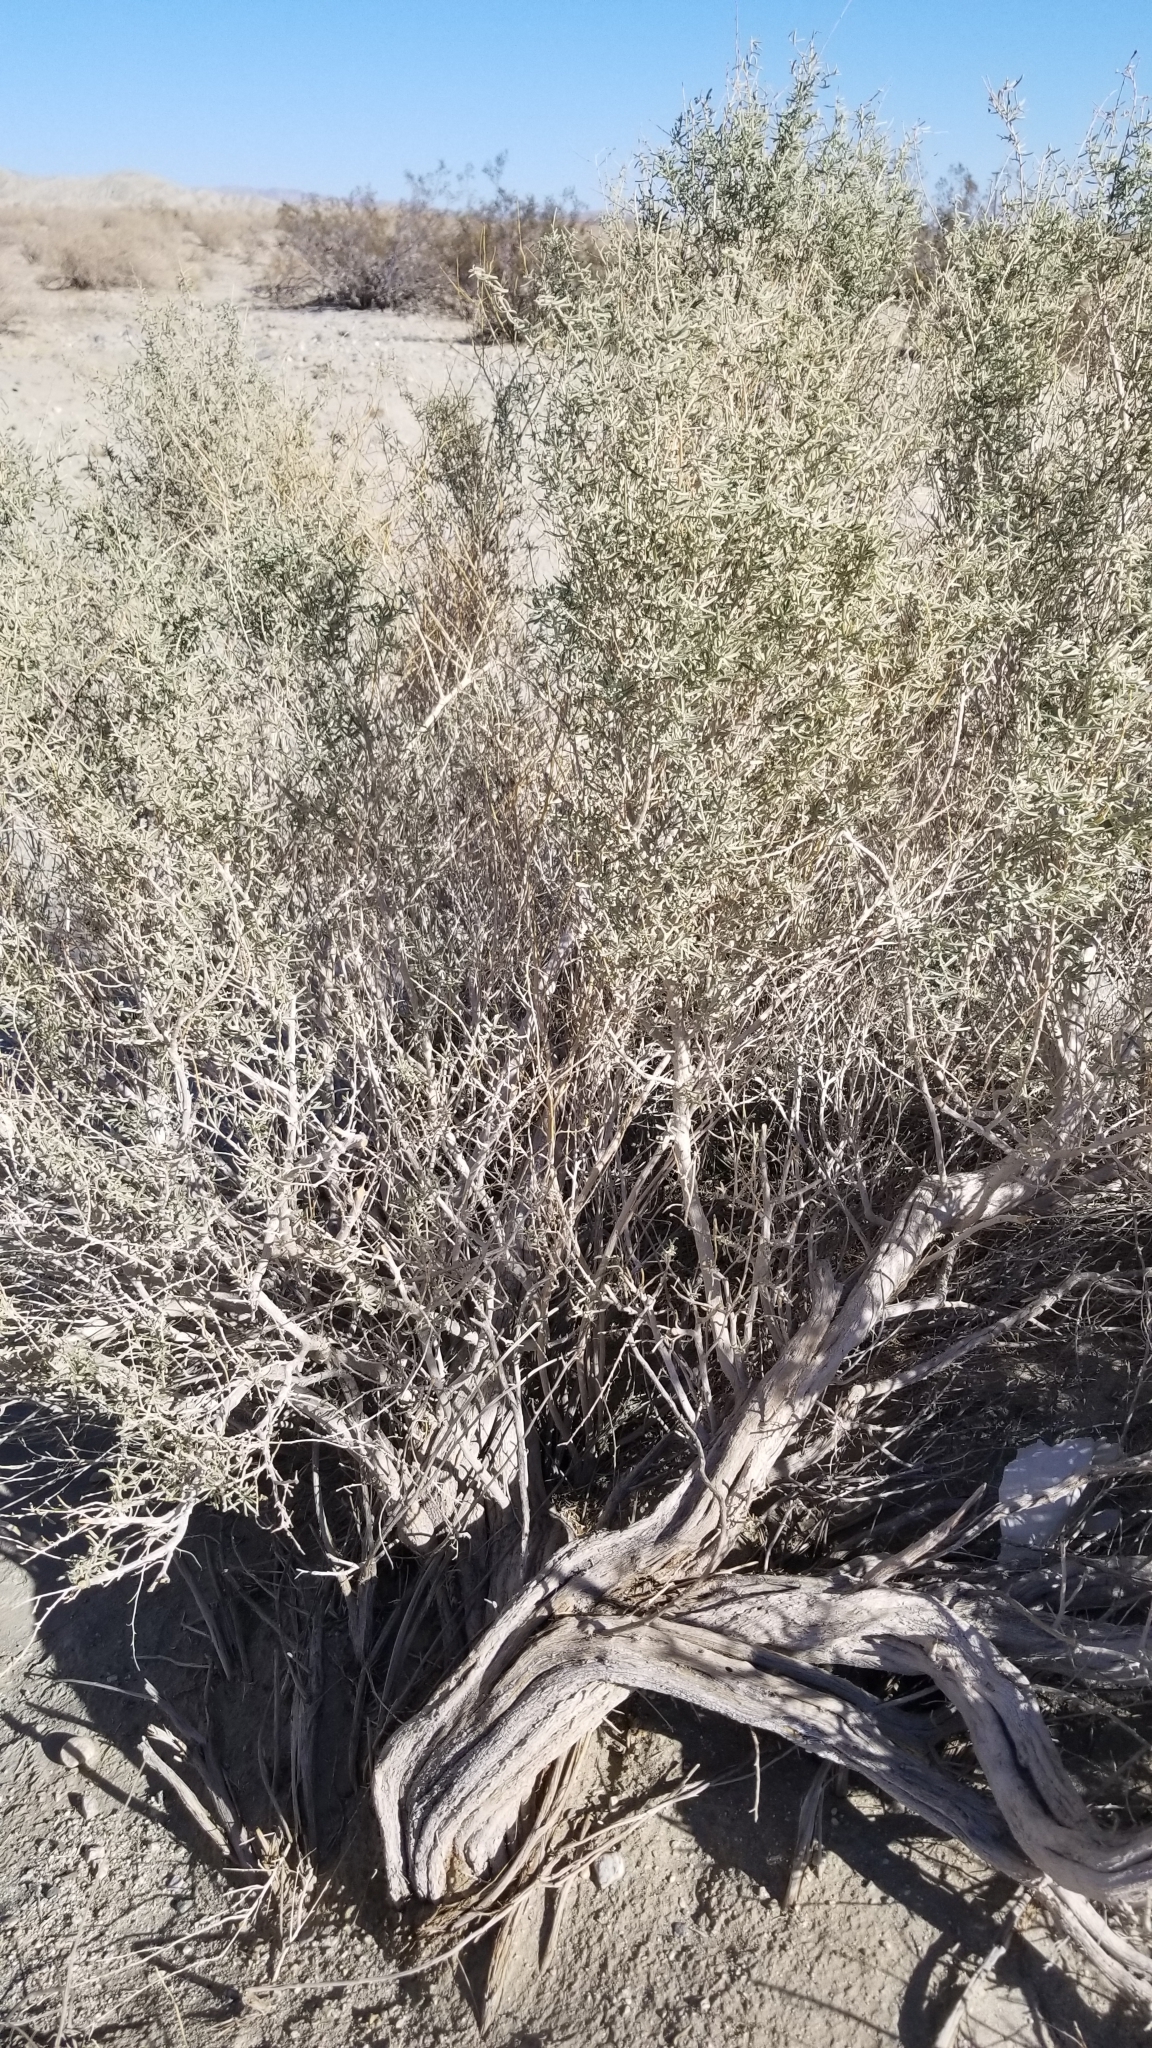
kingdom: Plantae
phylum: Tracheophyta
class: Magnoliopsida
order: Caryophyllales
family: Amaranthaceae
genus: Atriplex
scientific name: Atriplex canescens
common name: Four-wing saltbush
